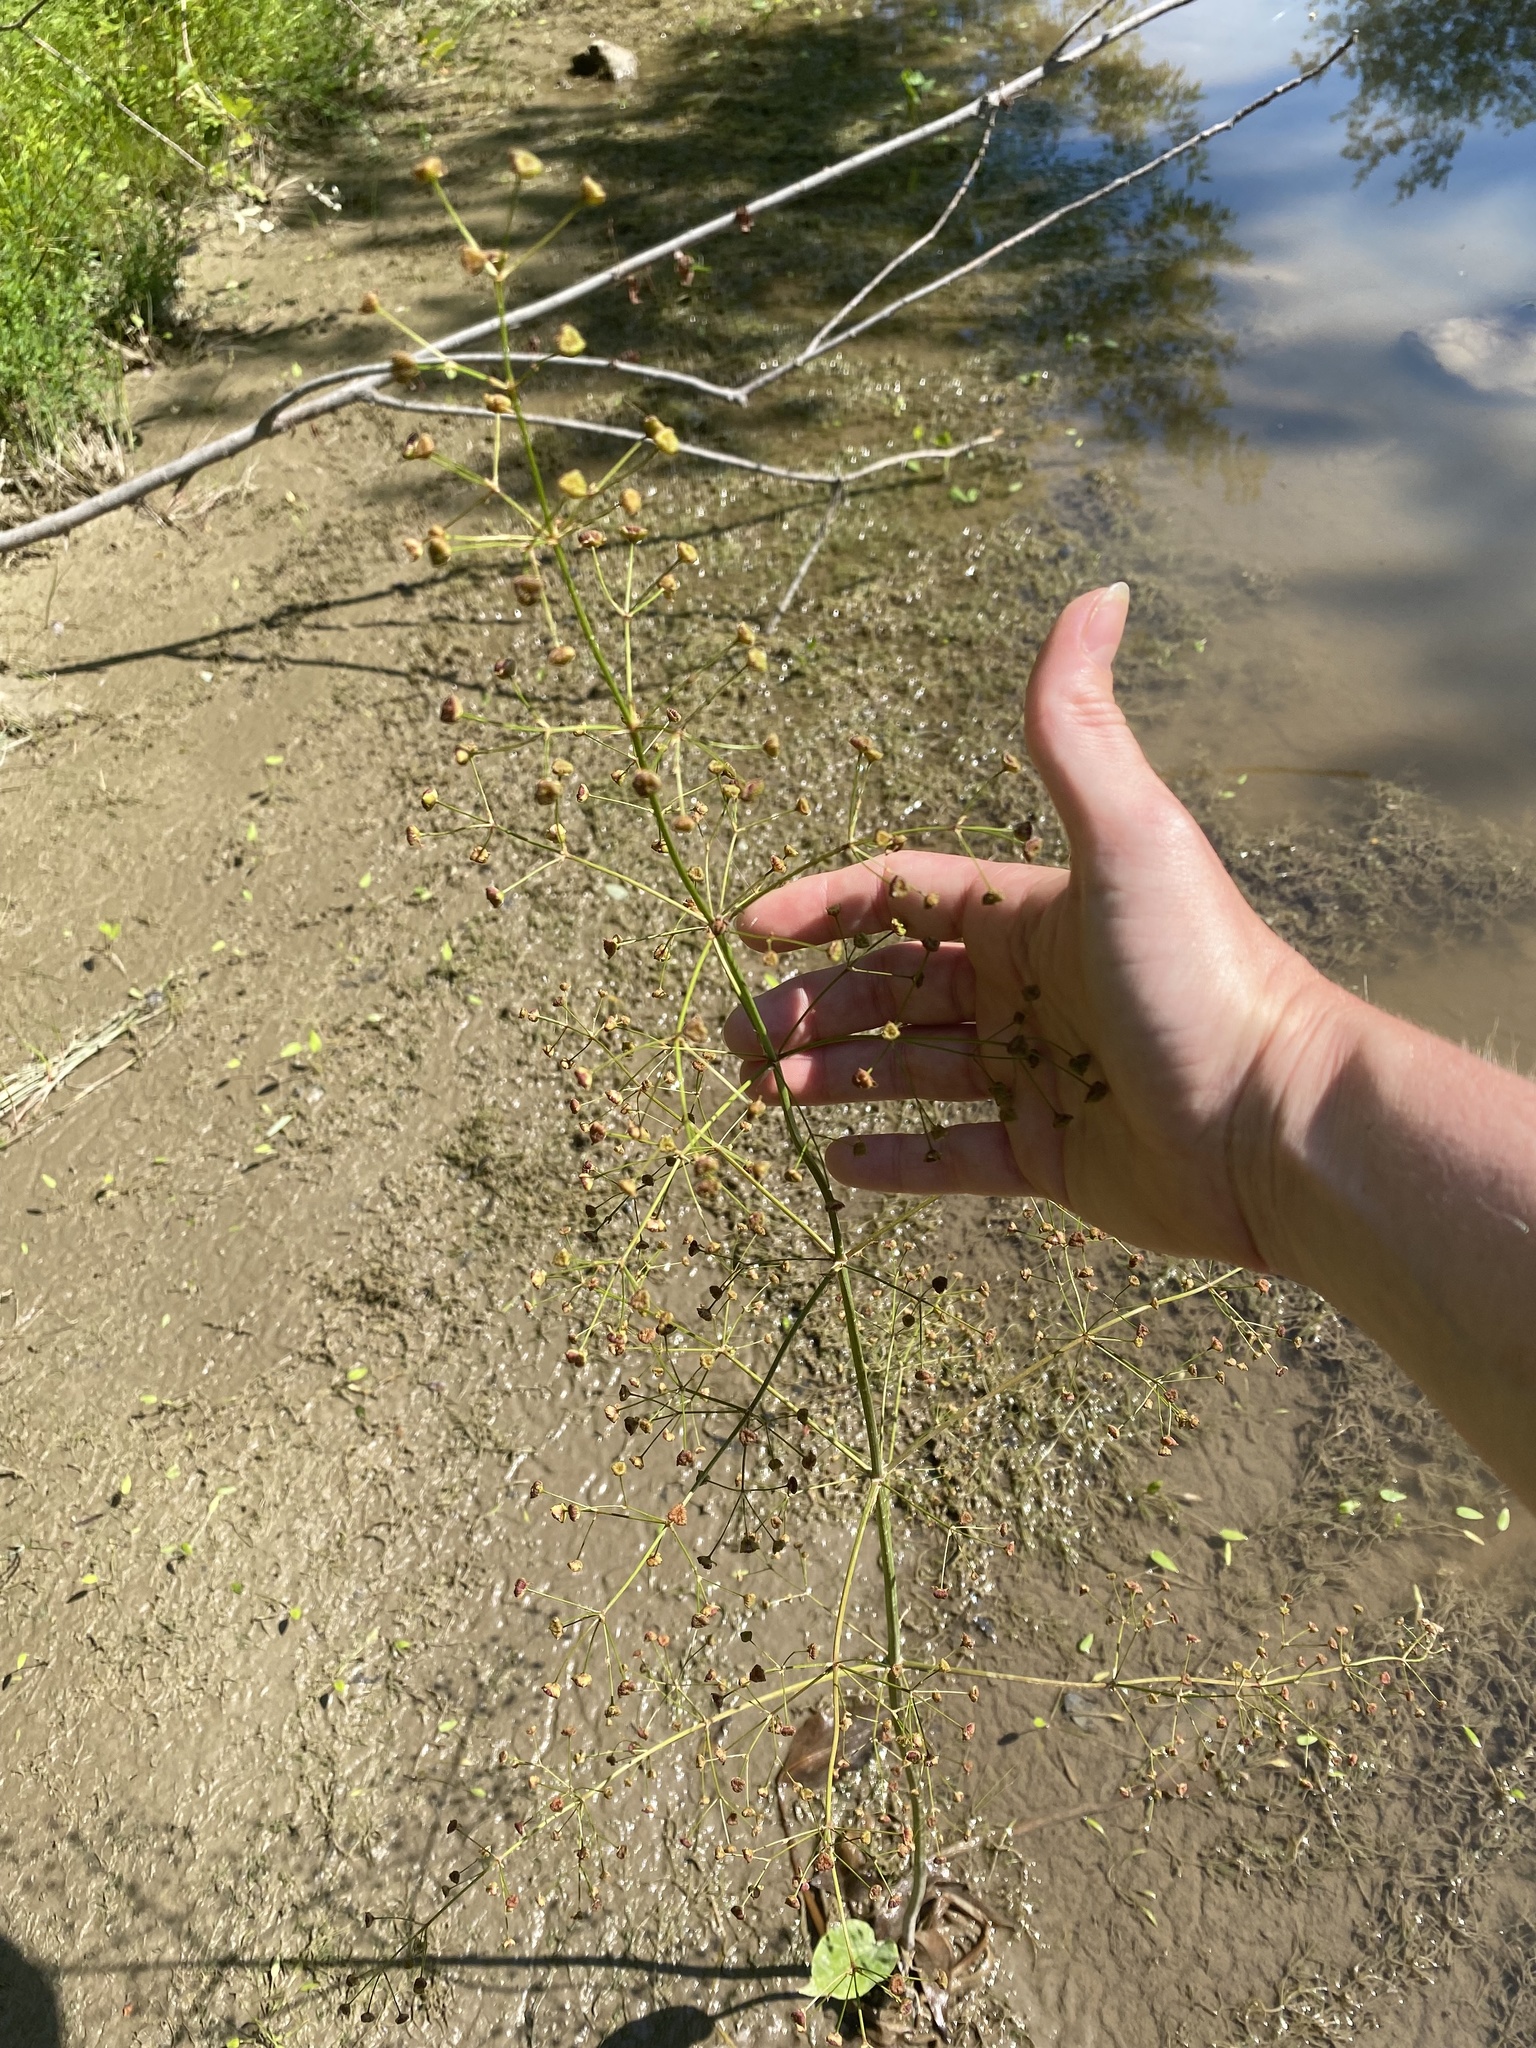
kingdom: Plantae
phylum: Tracheophyta
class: Liliopsida
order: Alismatales
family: Alismataceae
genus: Alisma
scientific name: Alisma triviale
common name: Northern water-plantain
